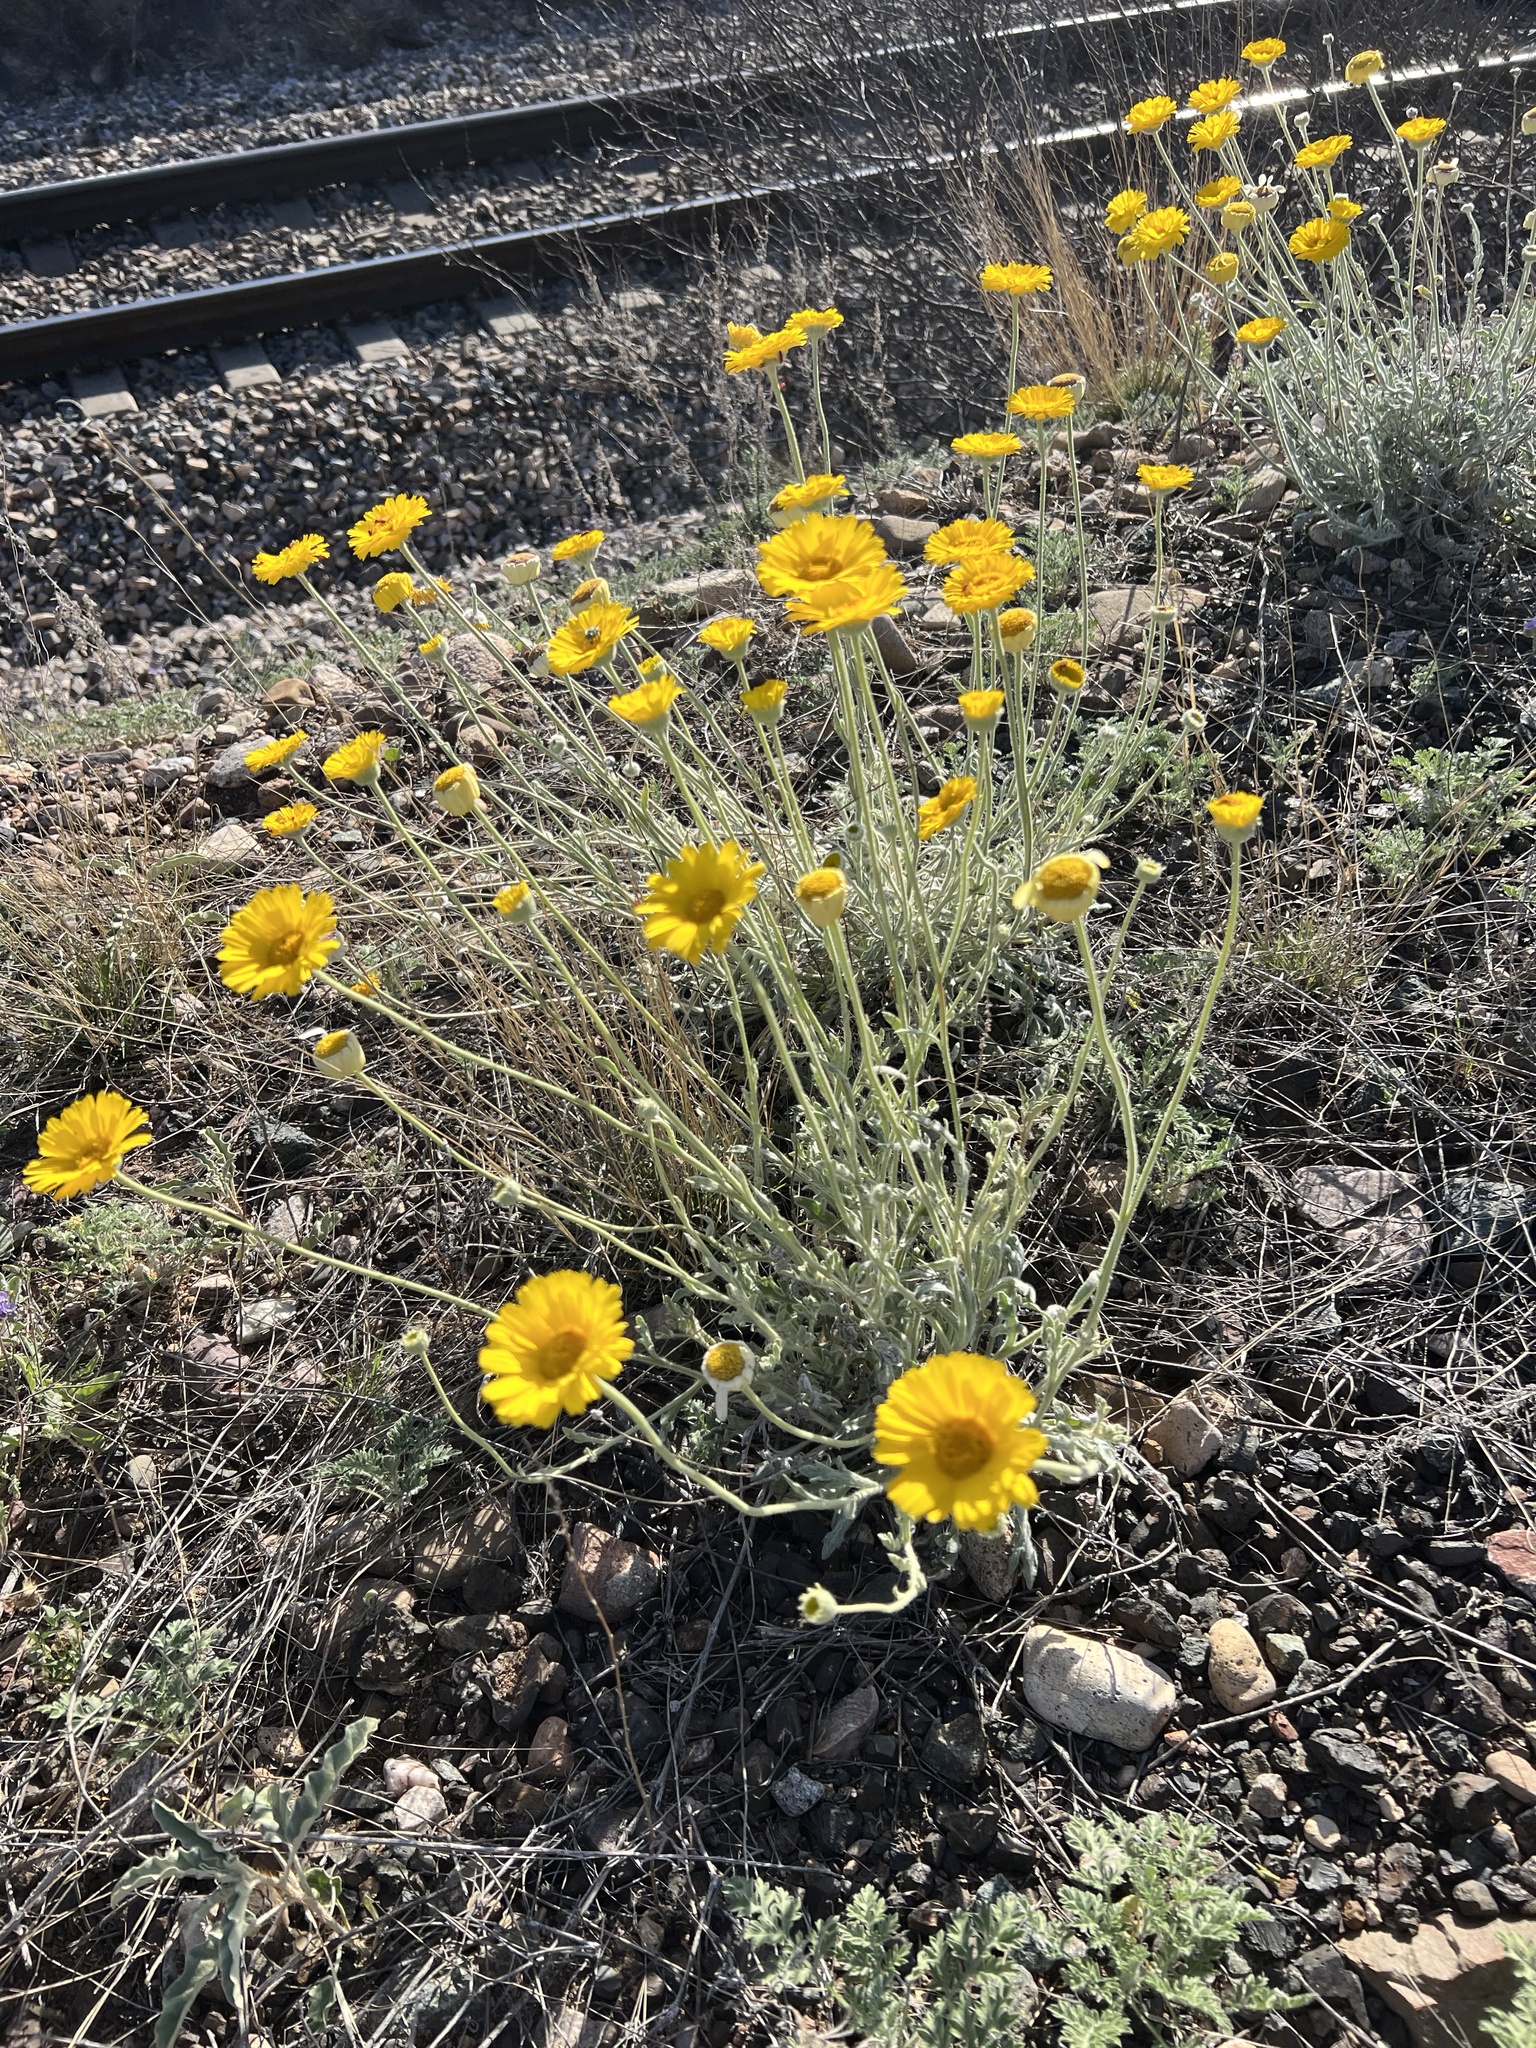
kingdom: Plantae
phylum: Tracheophyta
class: Magnoliopsida
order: Asterales
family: Asteraceae
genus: Baileya
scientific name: Baileya multiradiata
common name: Desert-marigold
